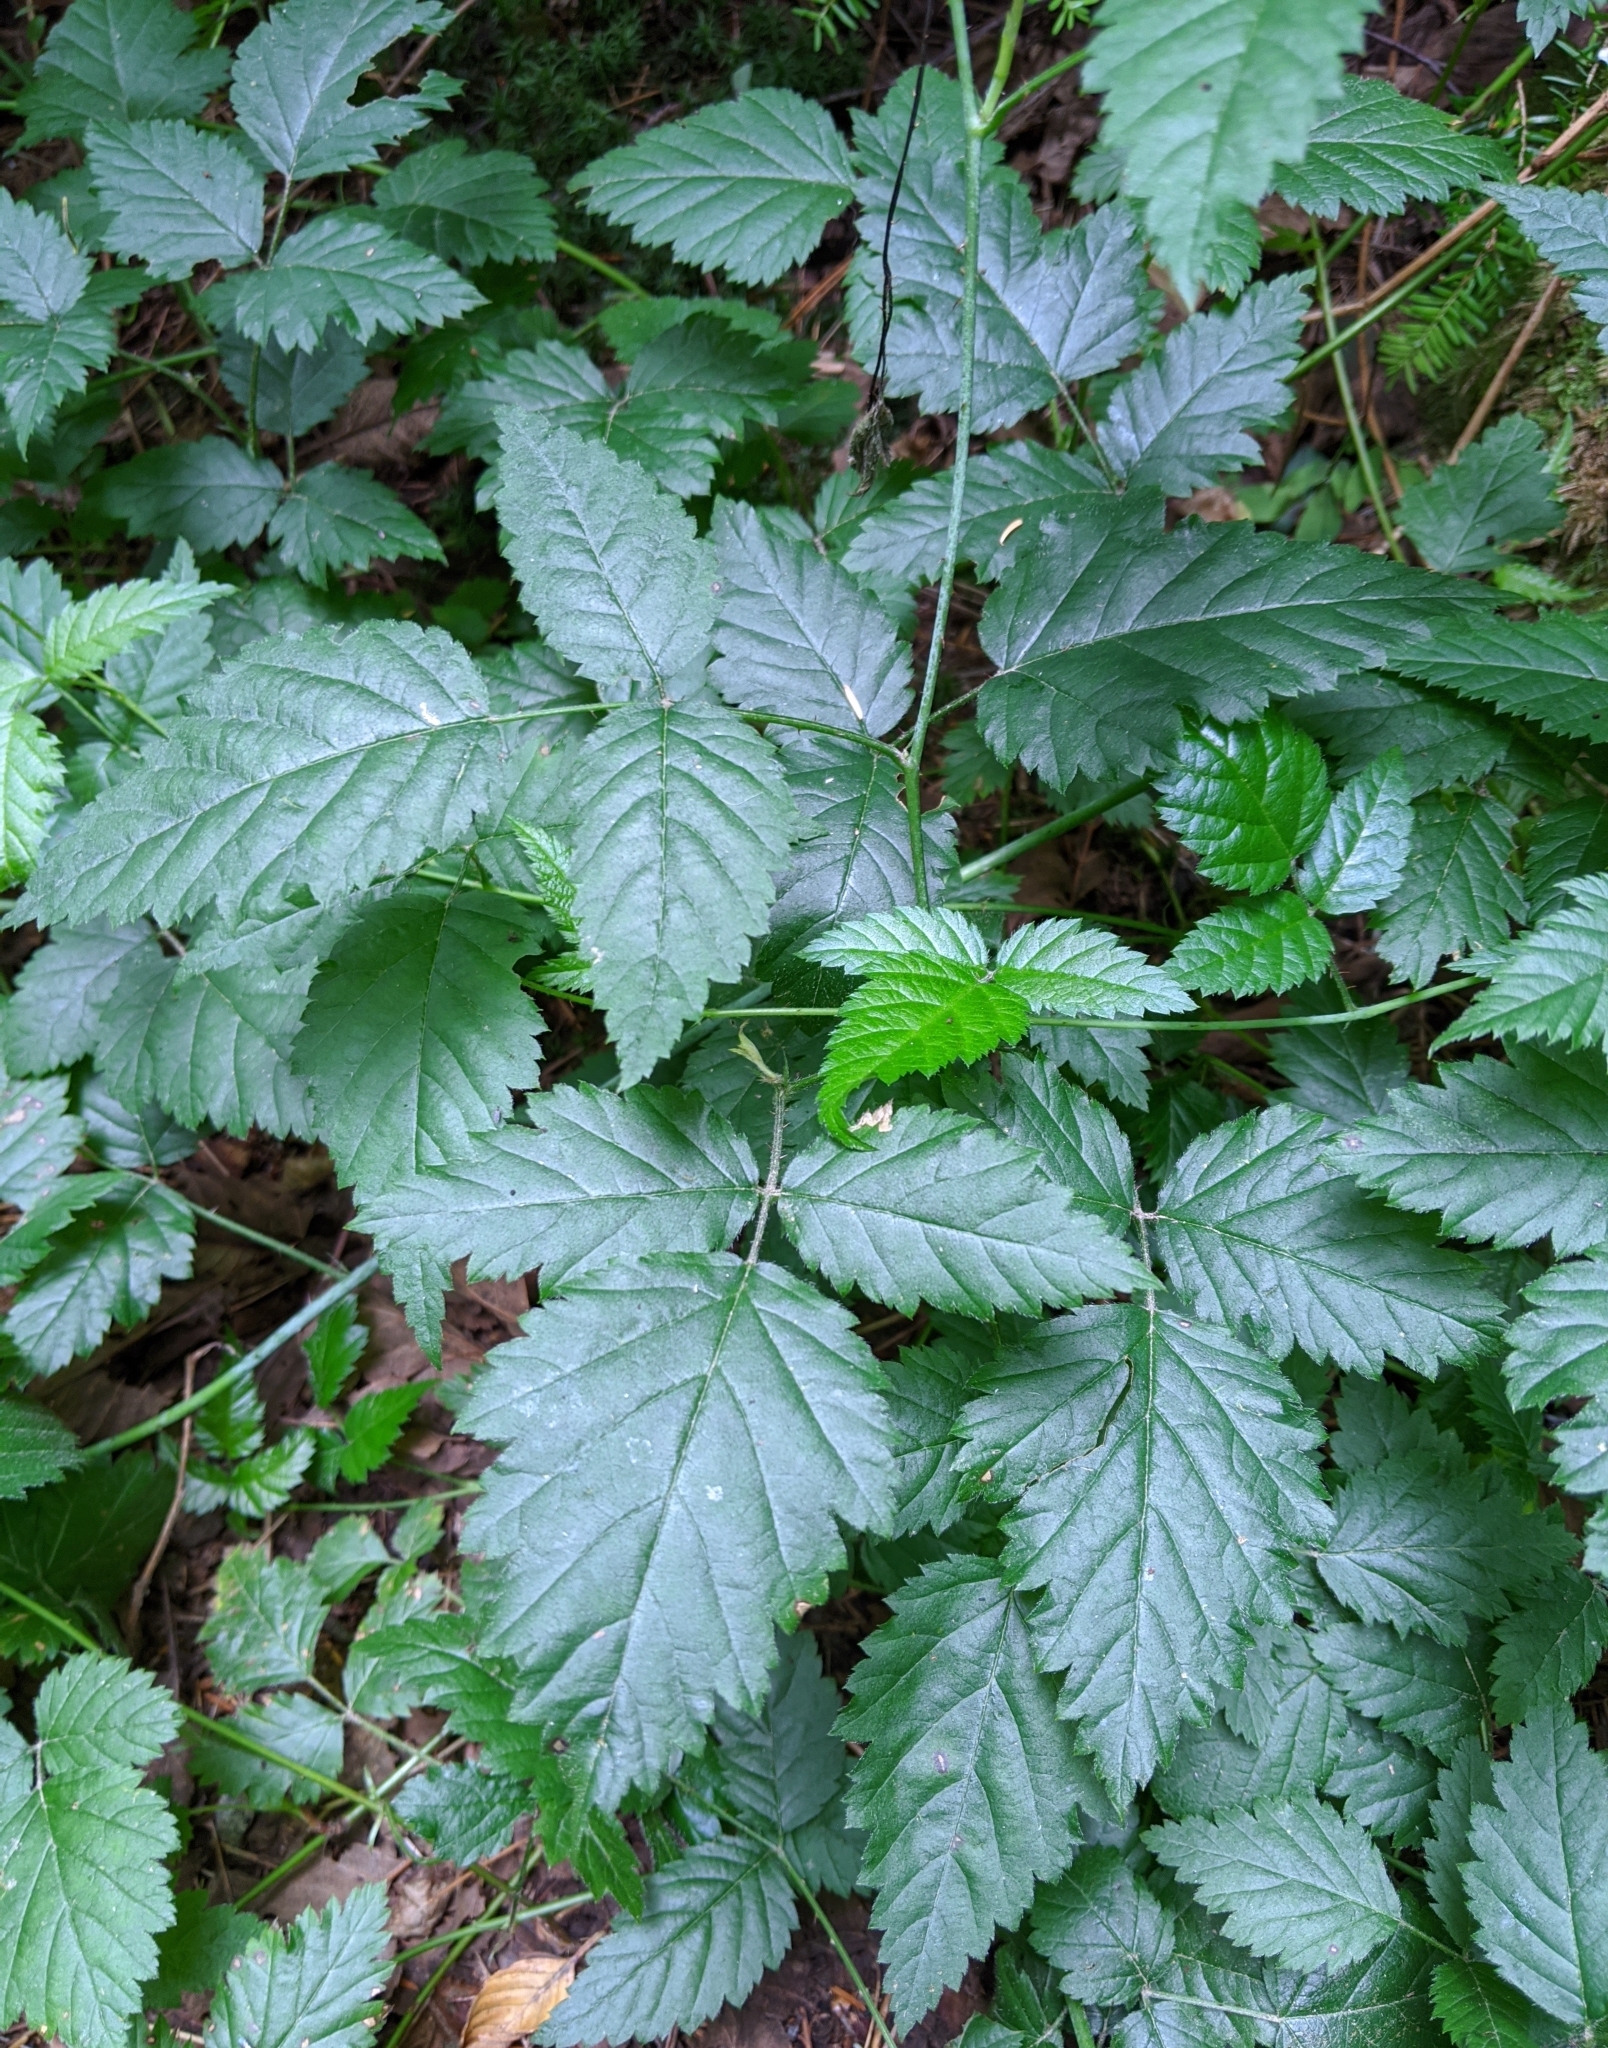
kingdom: Plantae
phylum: Tracheophyta
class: Magnoliopsida
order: Rosales
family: Rosaceae
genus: Rubus
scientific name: Rubus ursinus
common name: Pacific blackberry
